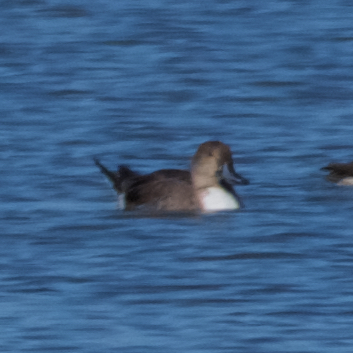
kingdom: Animalia
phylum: Chordata
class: Aves
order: Anseriformes
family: Anatidae
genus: Anas
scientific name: Anas acuta
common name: Northern pintail
